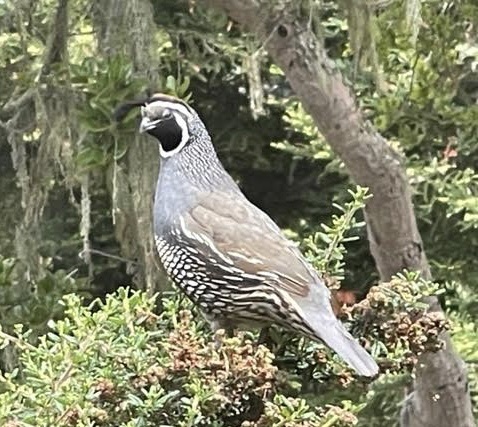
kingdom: Animalia
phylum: Chordata
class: Aves
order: Galliformes
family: Odontophoridae
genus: Callipepla
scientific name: Callipepla californica
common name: California quail
